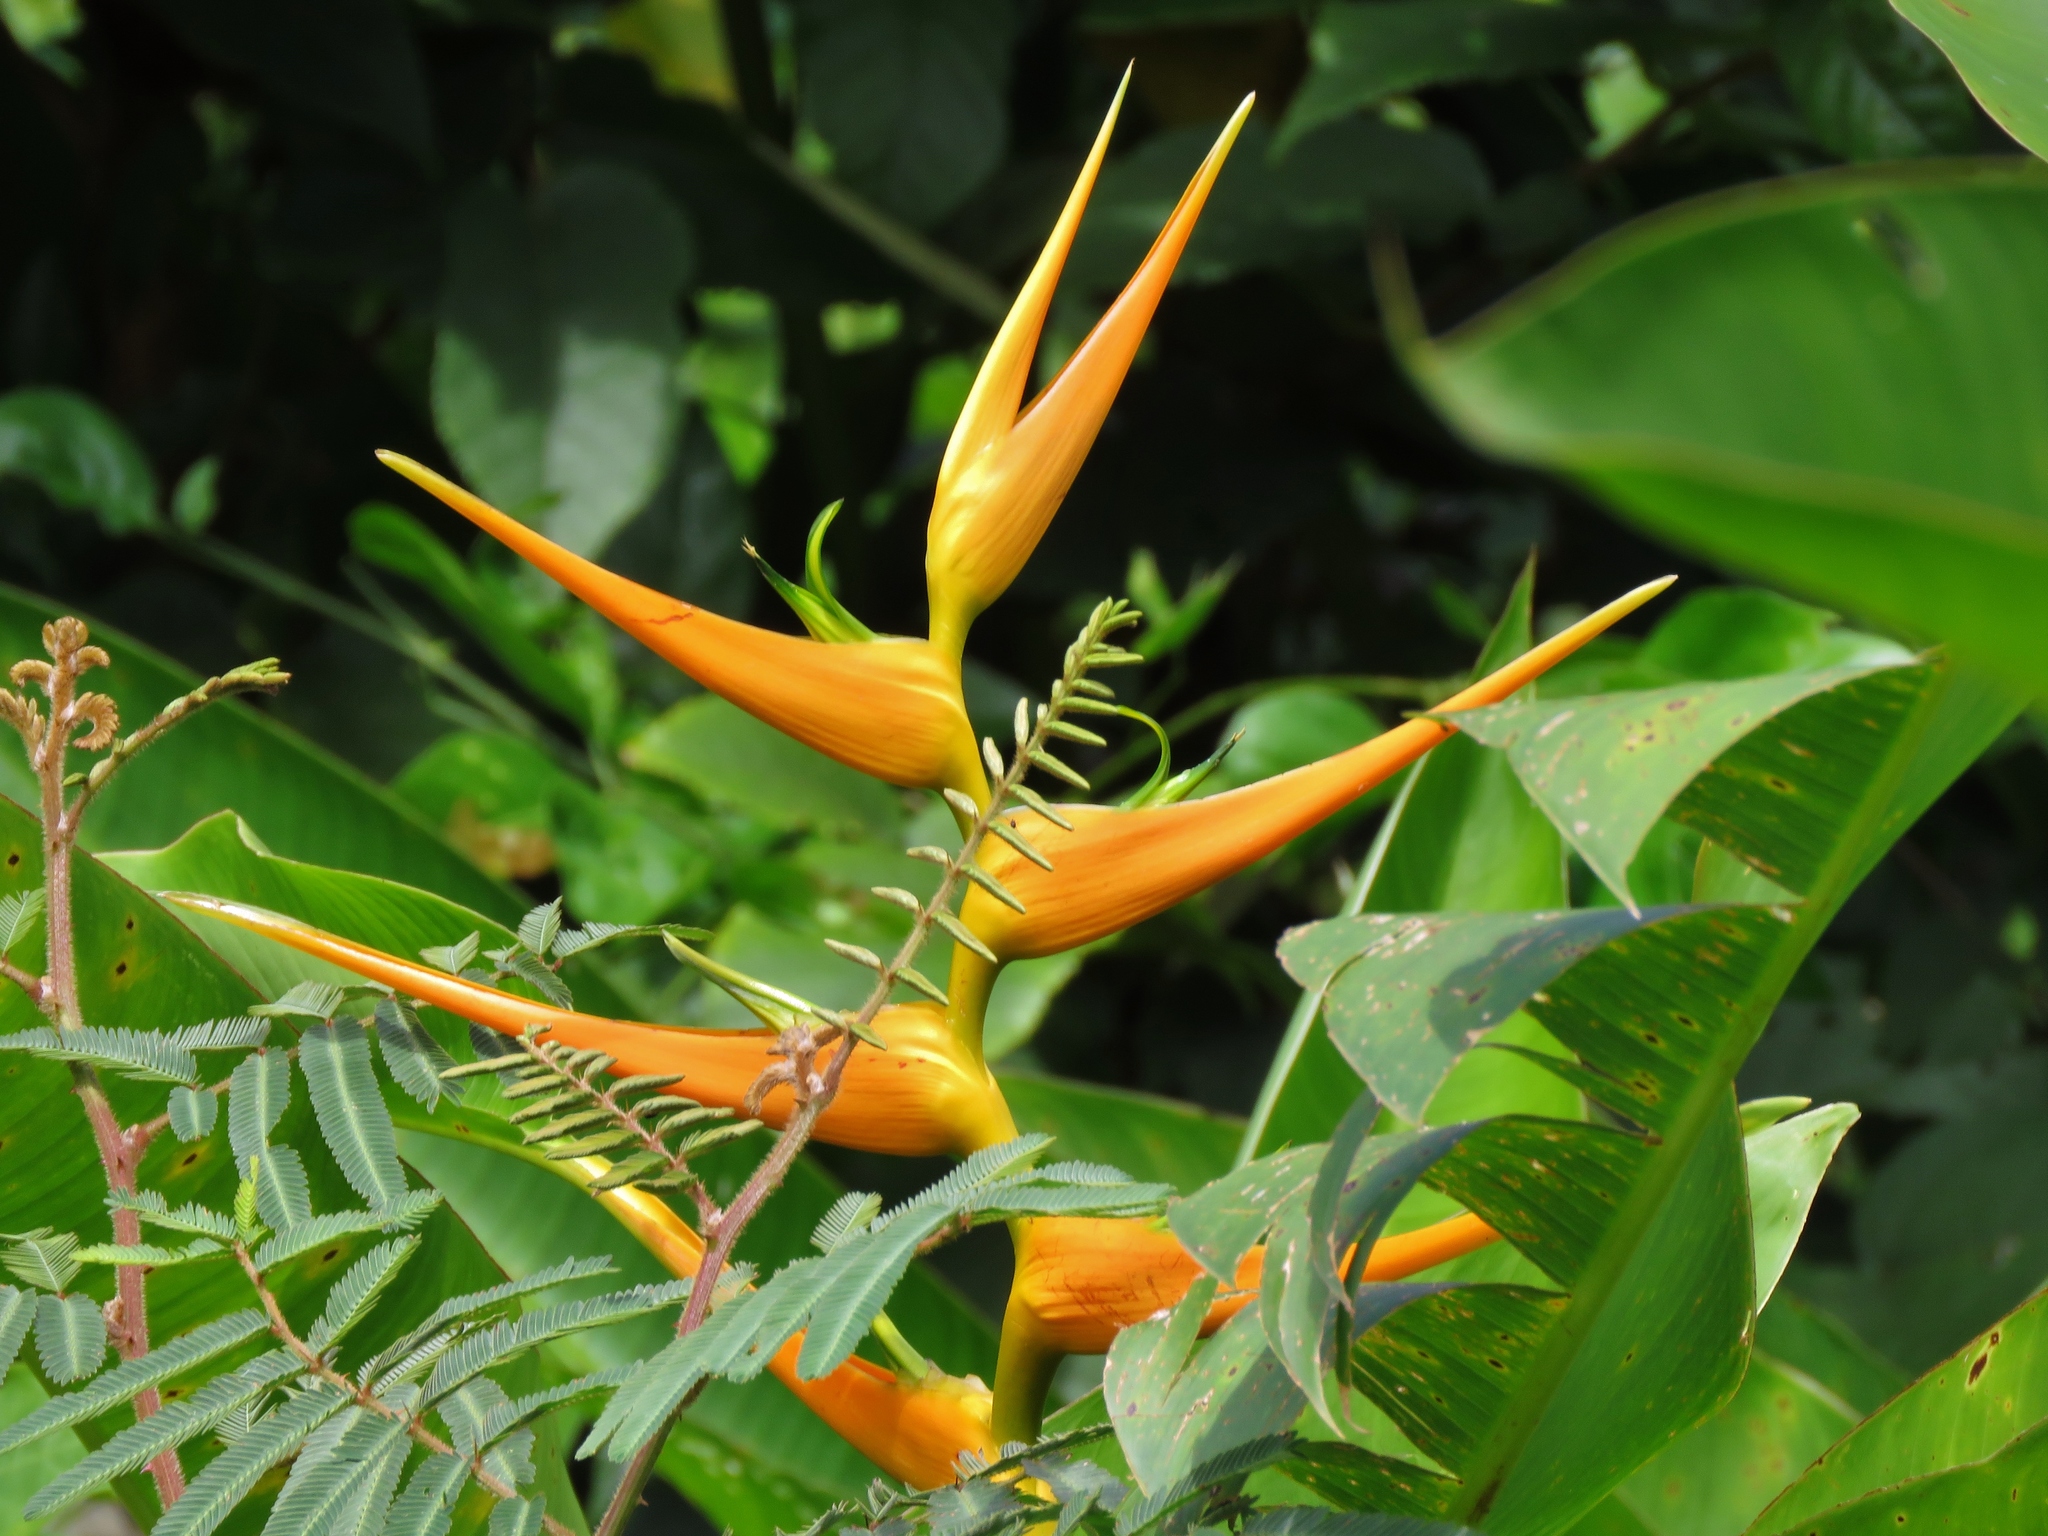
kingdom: Plantae
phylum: Tracheophyta
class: Liliopsida
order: Zingiberales
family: Heliconiaceae
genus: Heliconia
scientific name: Heliconia latispatha
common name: Expanded lobsterclaw
